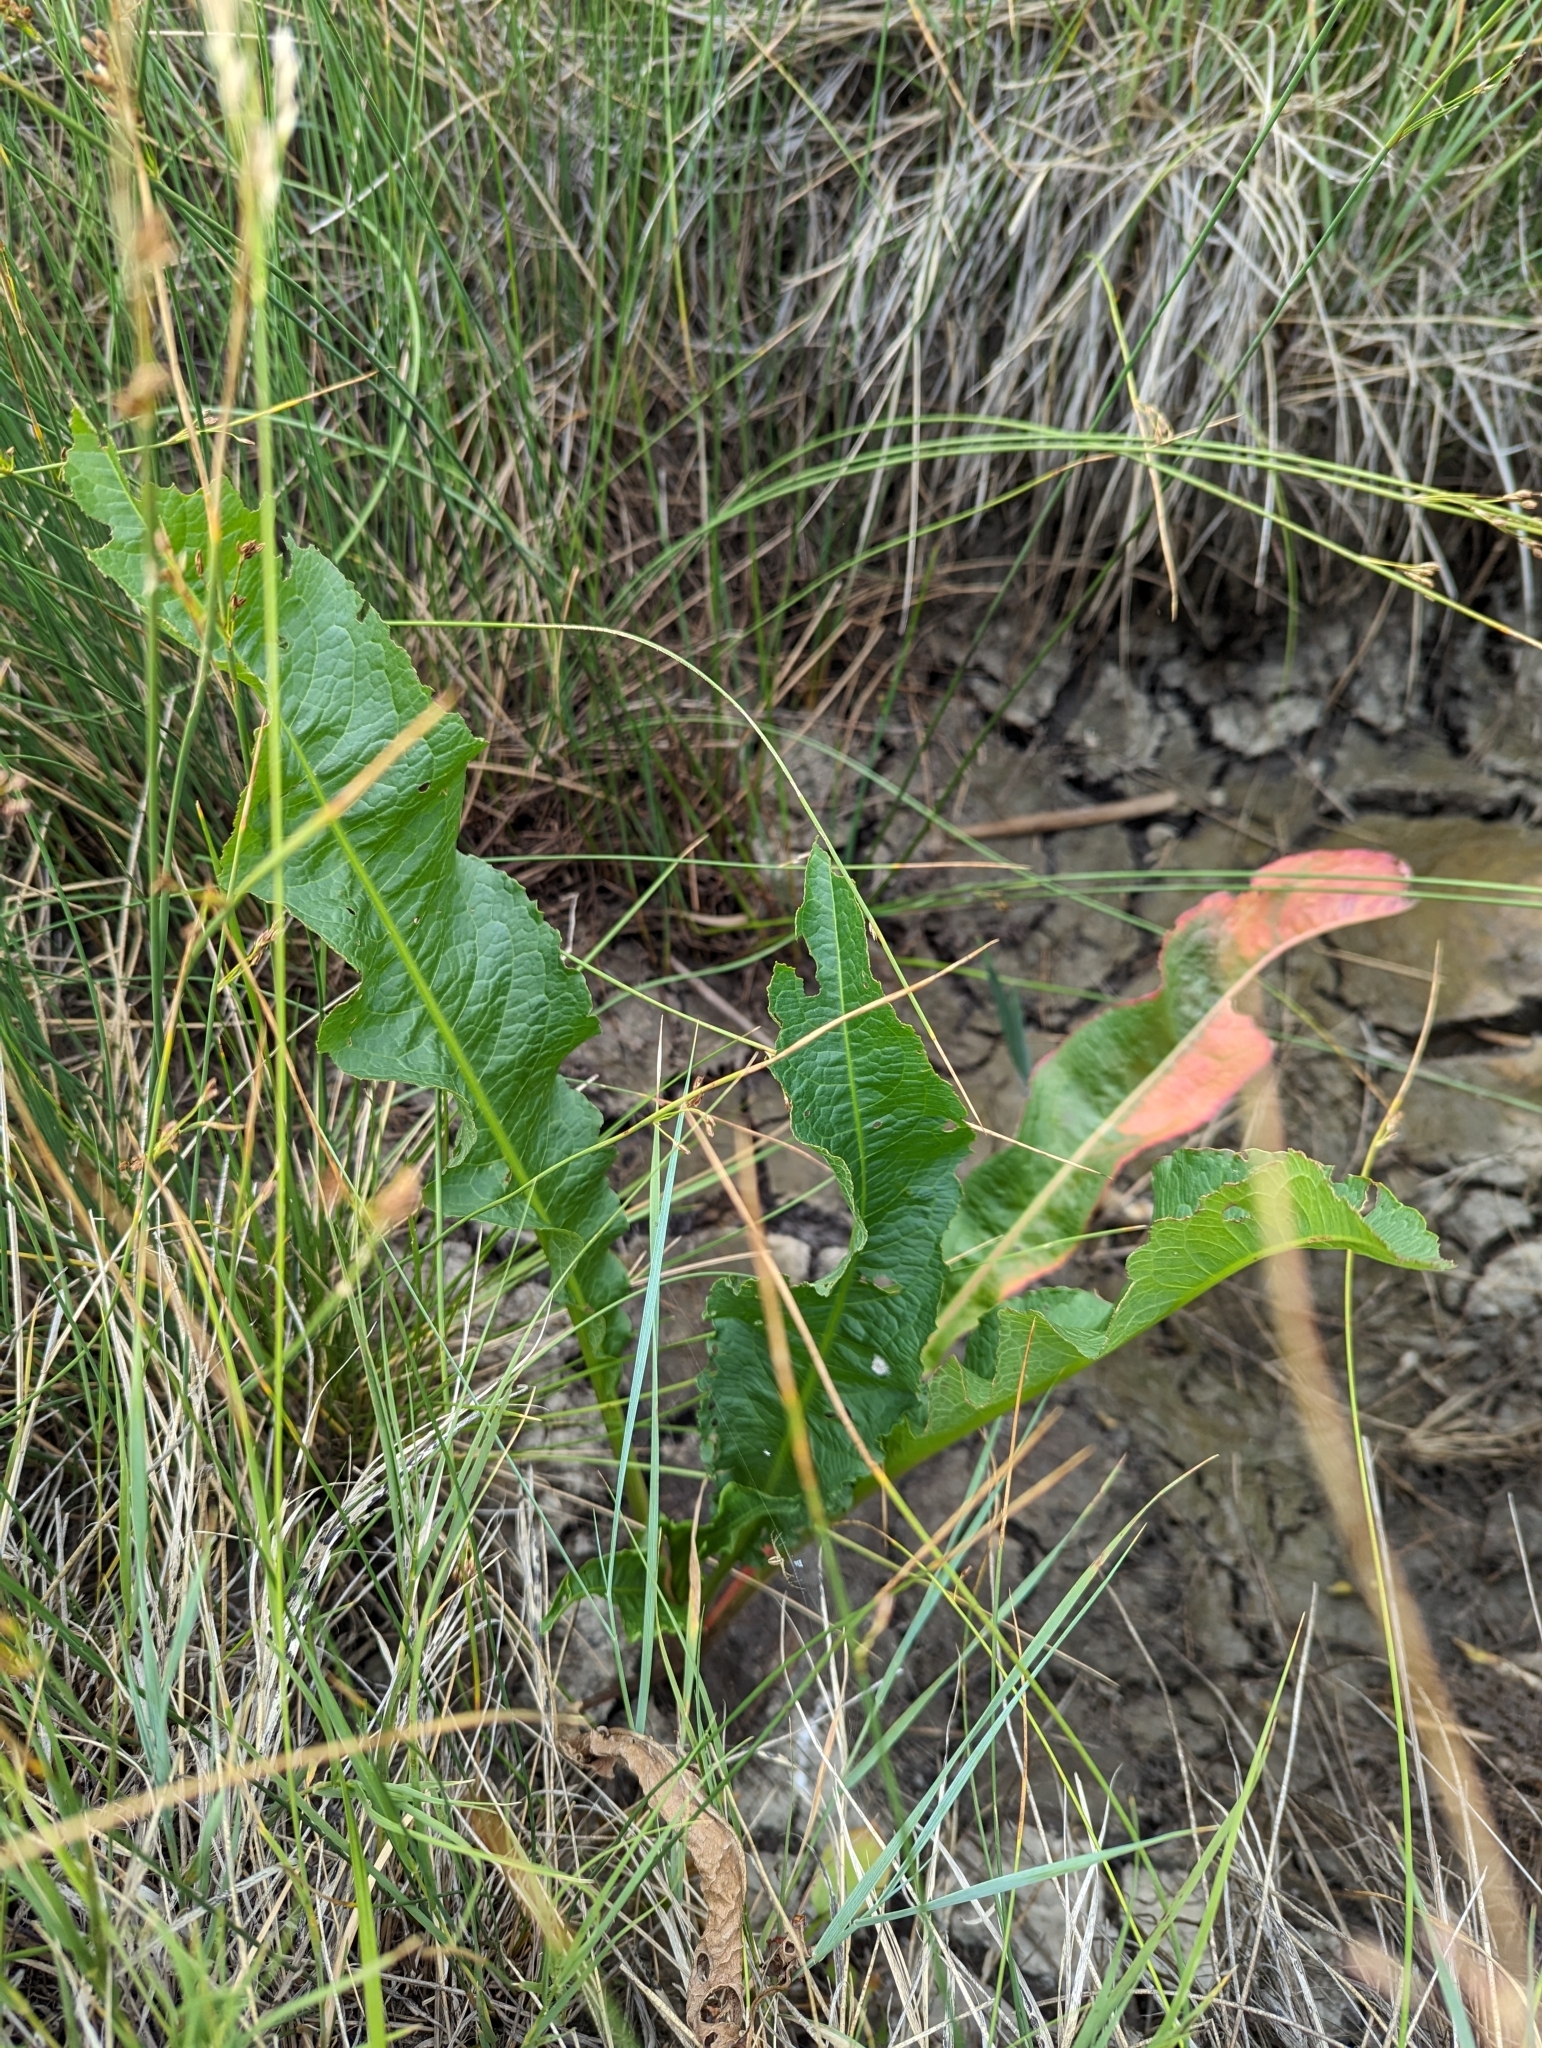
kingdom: Plantae
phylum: Tracheophyta
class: Magnoliopsida
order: Brassicales
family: Brassicaceae
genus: Armoracia
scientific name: Armoracia rusticana
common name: Horseradish
